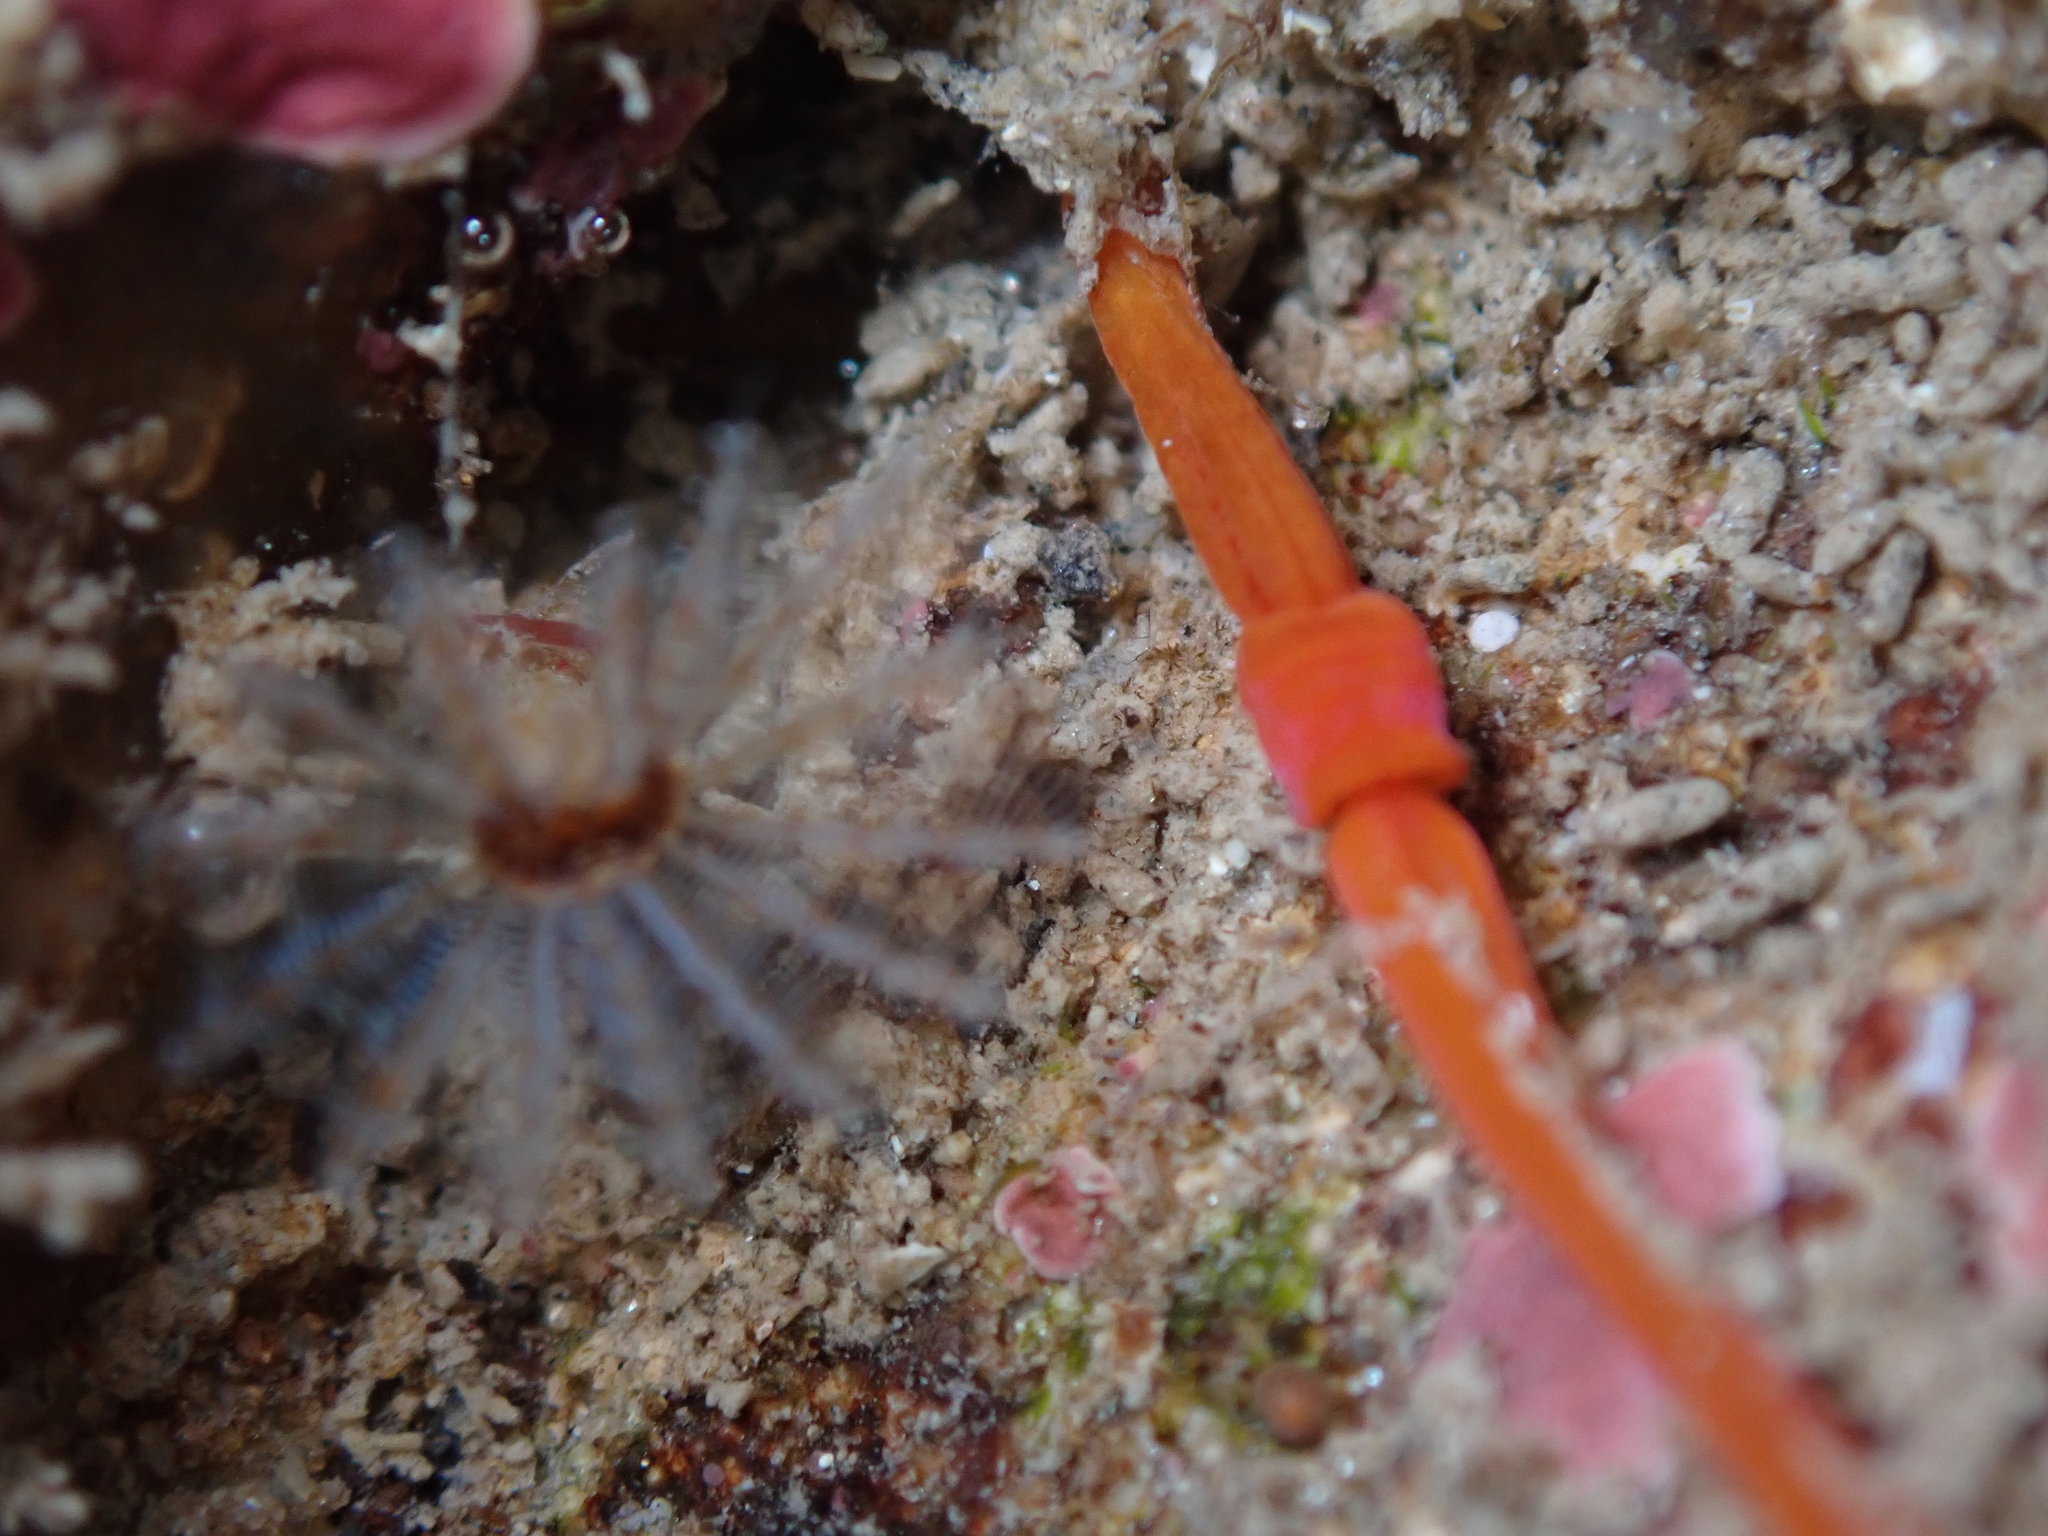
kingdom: Animalia
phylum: Hemichordata
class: Enteropneusta
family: Harrimaniidae
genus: Saccoglossus
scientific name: Saccoglossus otagoensis
